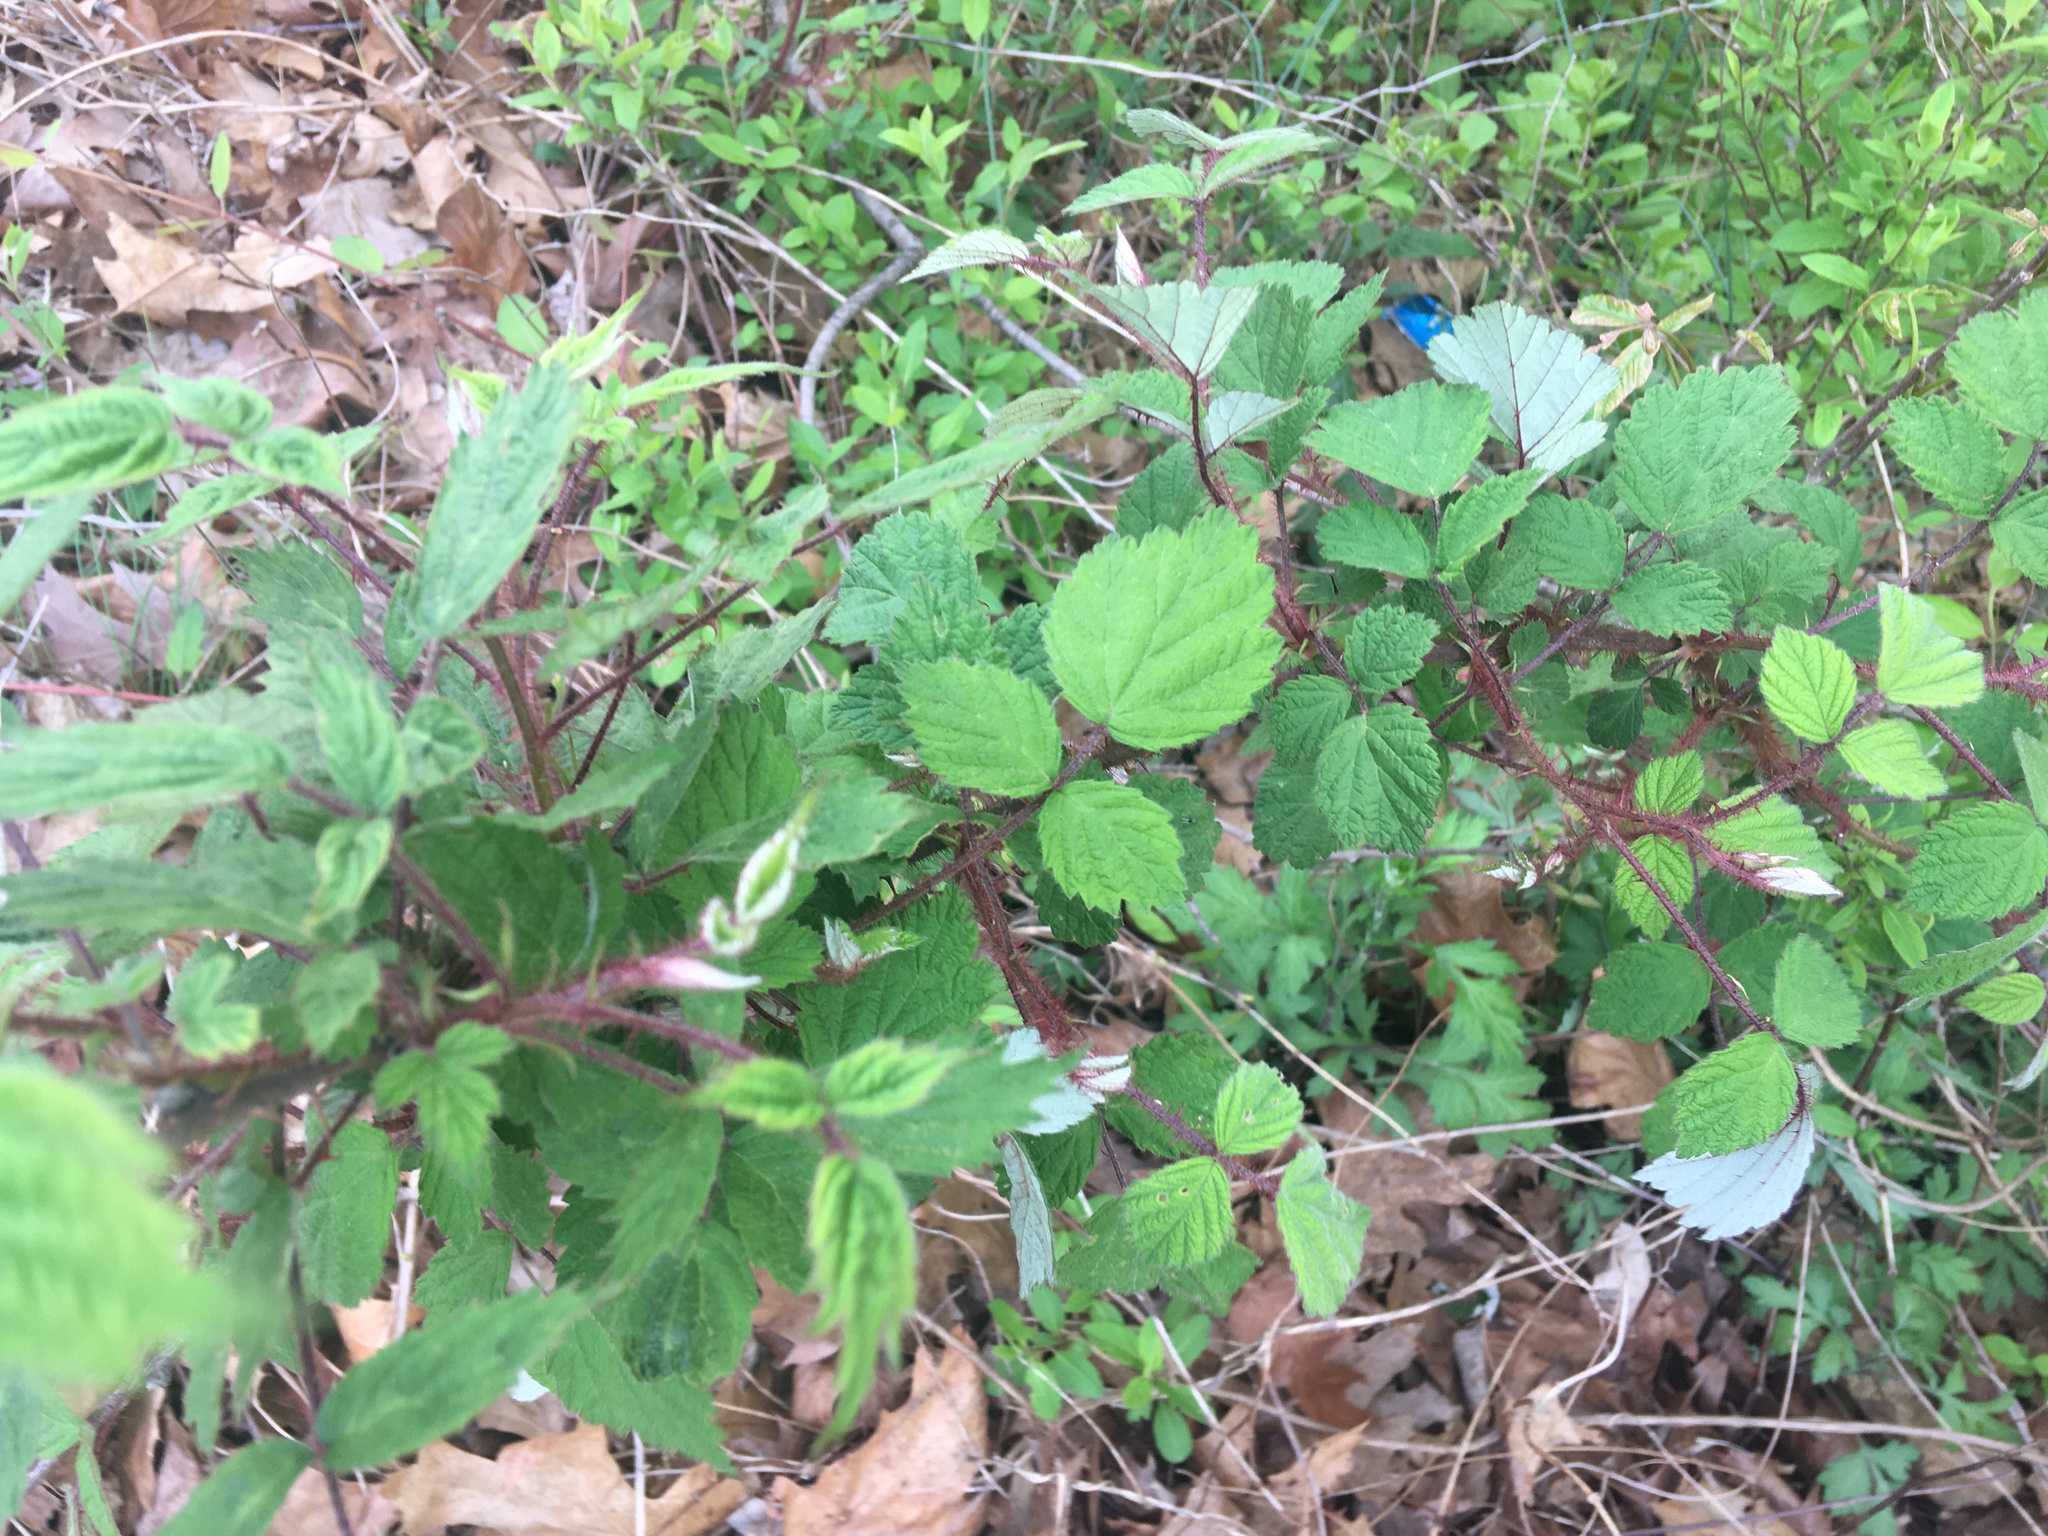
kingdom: Plantae
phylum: Tracheophyta
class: Magnoliopsida
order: Rosales
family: Rosaceae
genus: Rubus
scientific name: Rubus phoenicolasius
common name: Japanese wineberry
